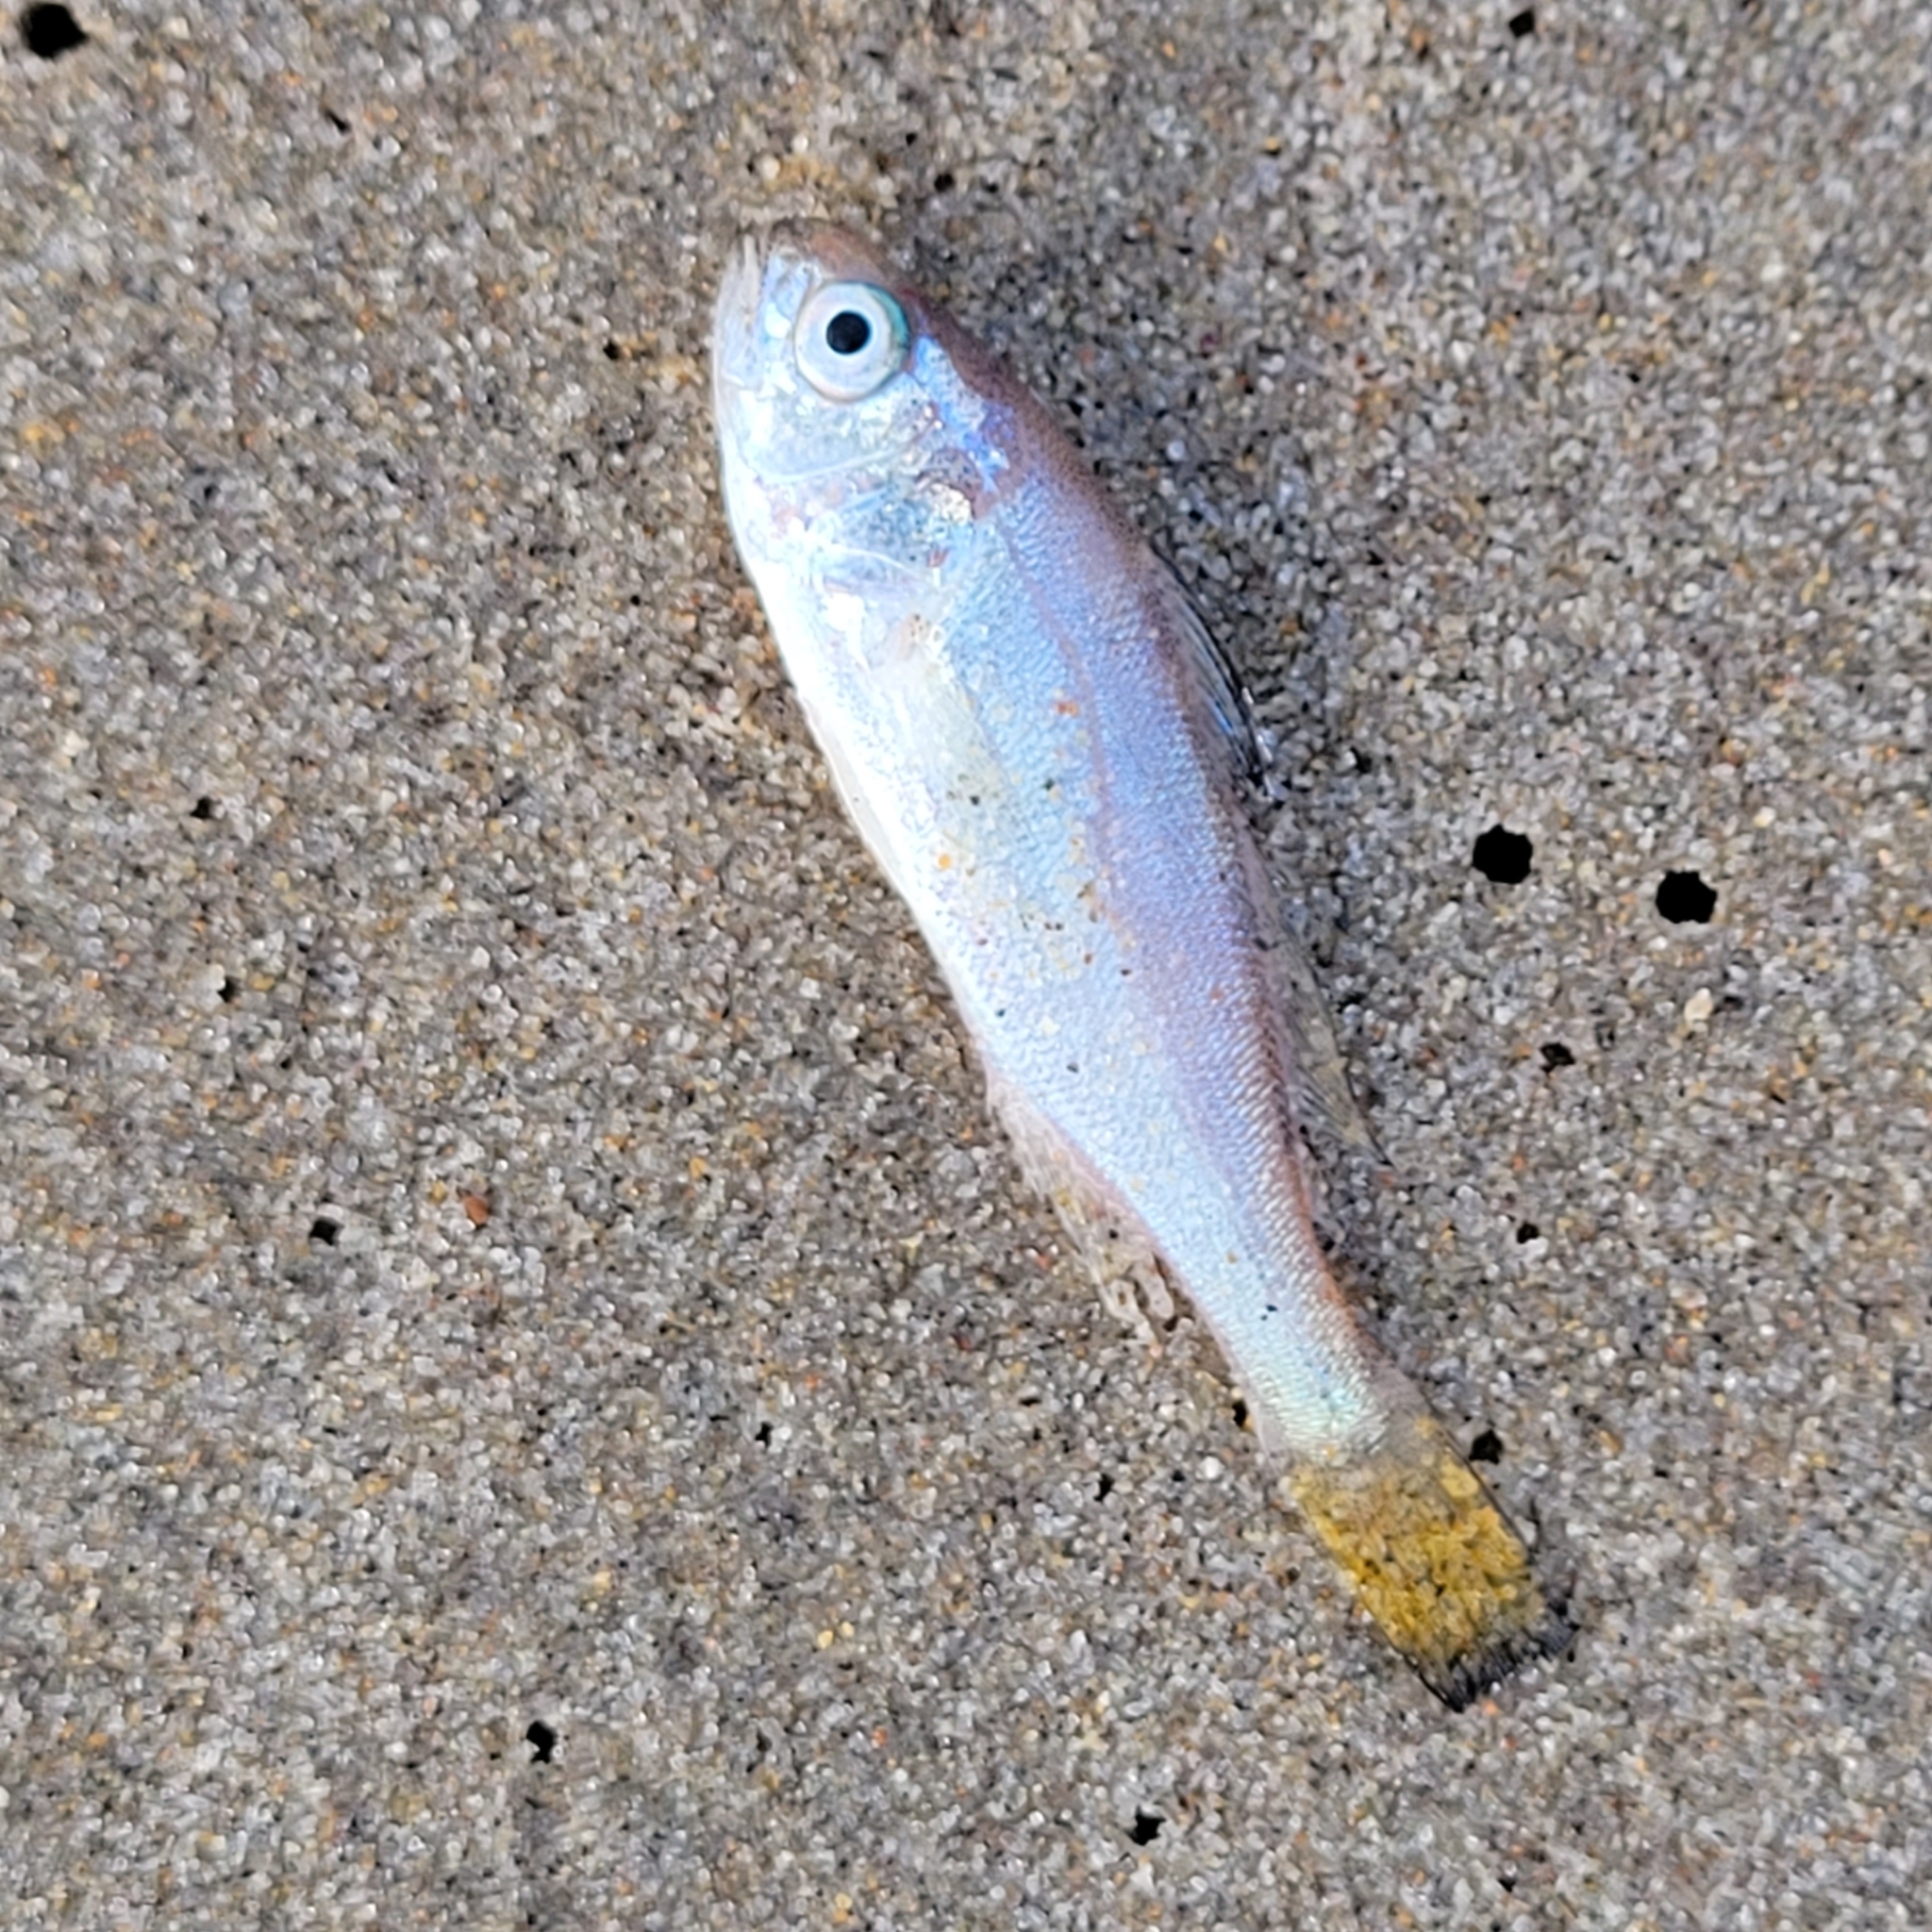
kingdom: Animalia
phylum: Chordata
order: Perciformes
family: Sciaenidae
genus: Genyonemus
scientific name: Genyonemus lineatus
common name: White croaker
